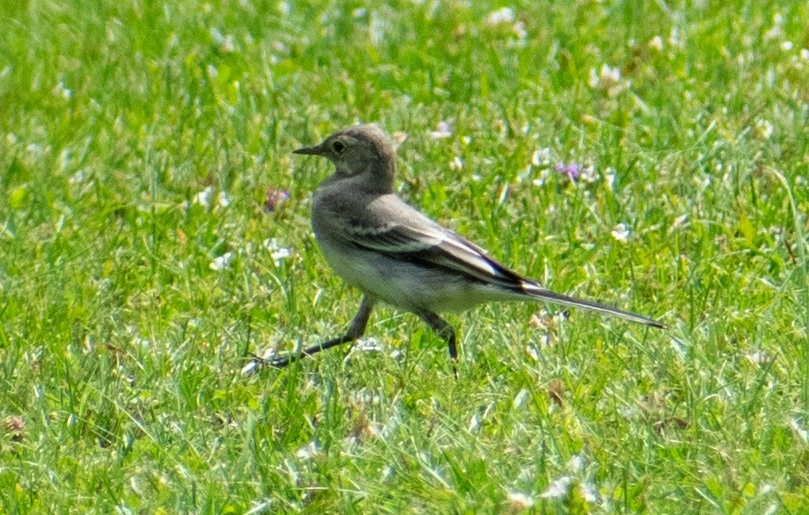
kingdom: Animalia
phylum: Chordata
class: Aves
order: Passeriformes
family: Motacillidae
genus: Motacilla
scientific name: Motacilla alba
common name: White wagtail
